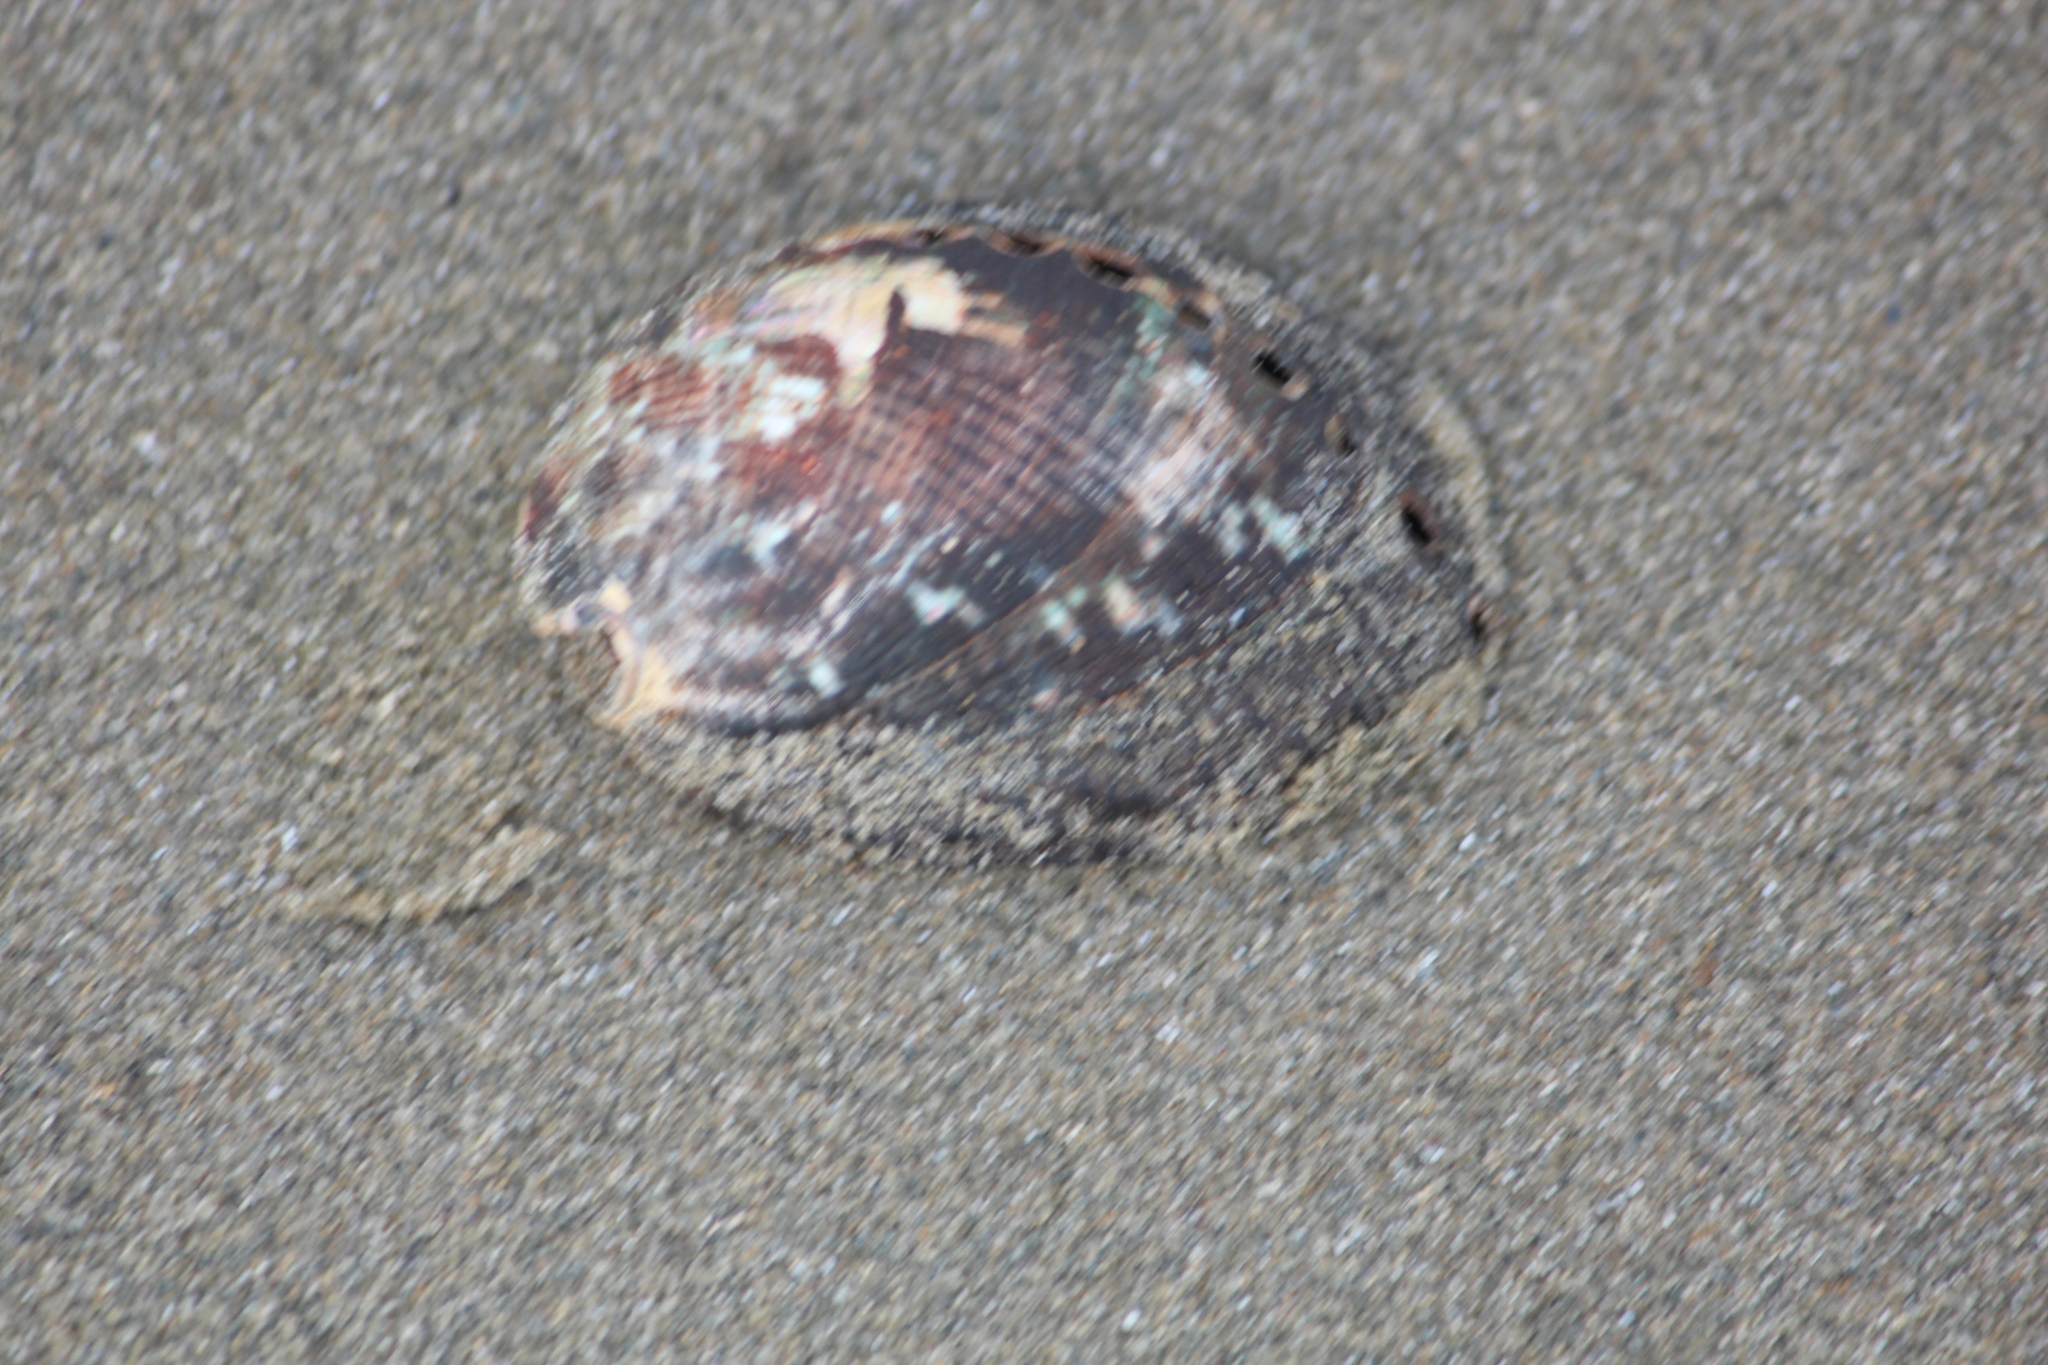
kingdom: Animalia
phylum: Mollusca
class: Gastropoda
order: Lepetellida
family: Haliotidae
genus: Haliotis
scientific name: Haliotis virginea
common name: Whitefoot paua
